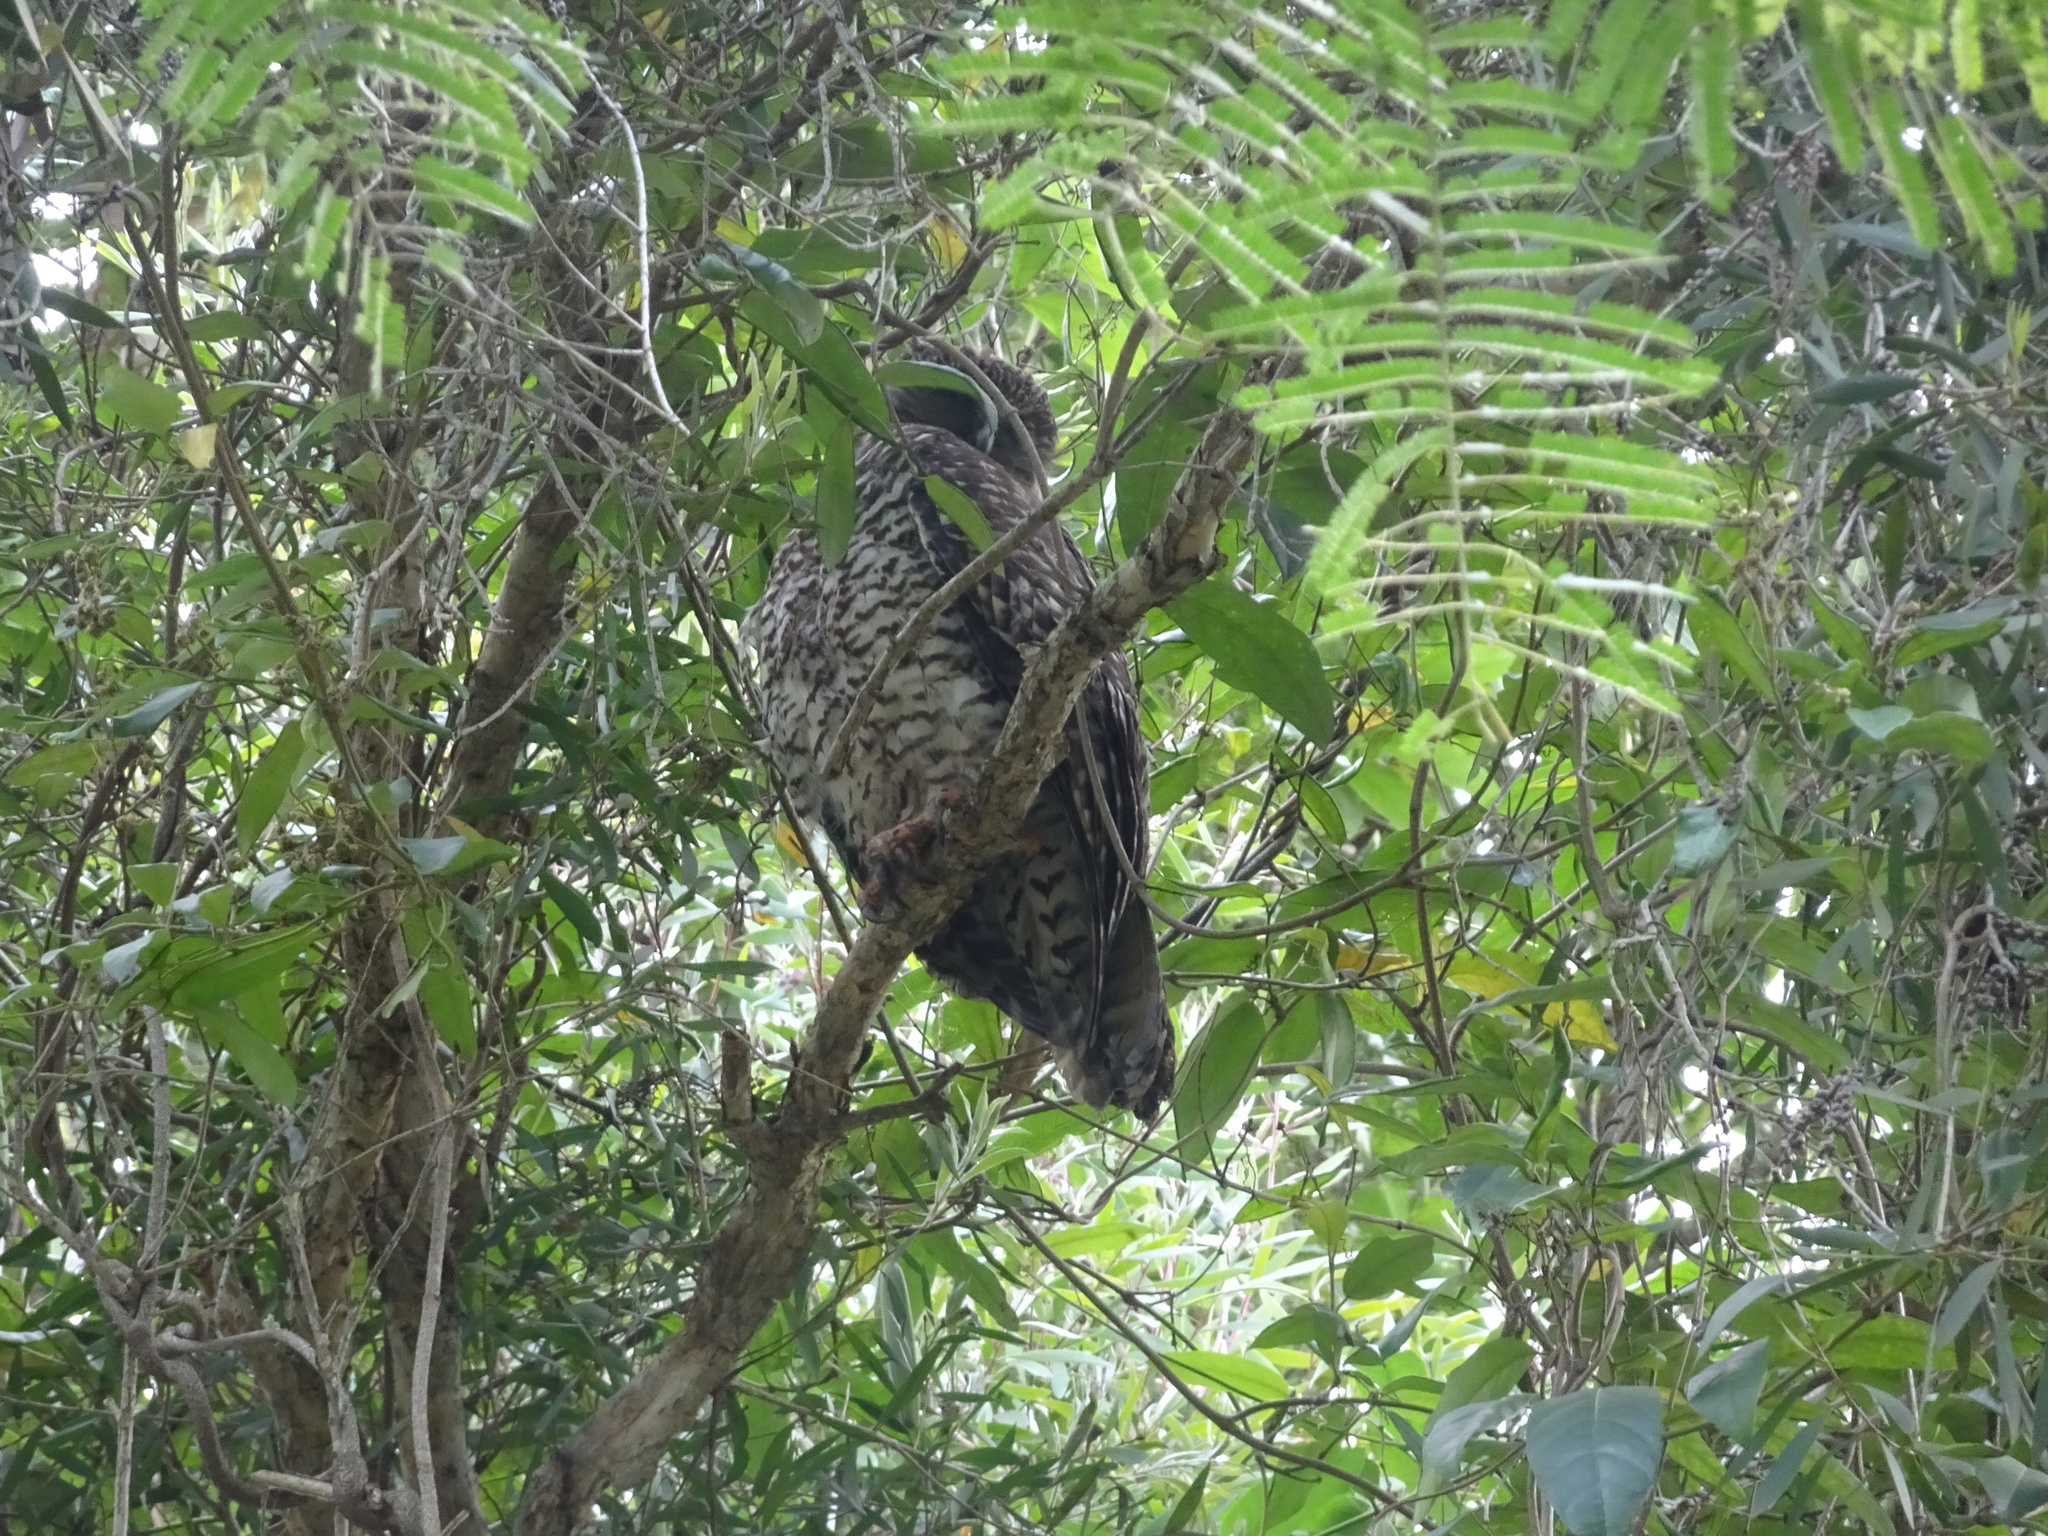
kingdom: Animalia
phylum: Chordata
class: Aves
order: Strigiformes
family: Strigidae
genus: Ninox
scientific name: Ninox strenua
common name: Powerful owl
